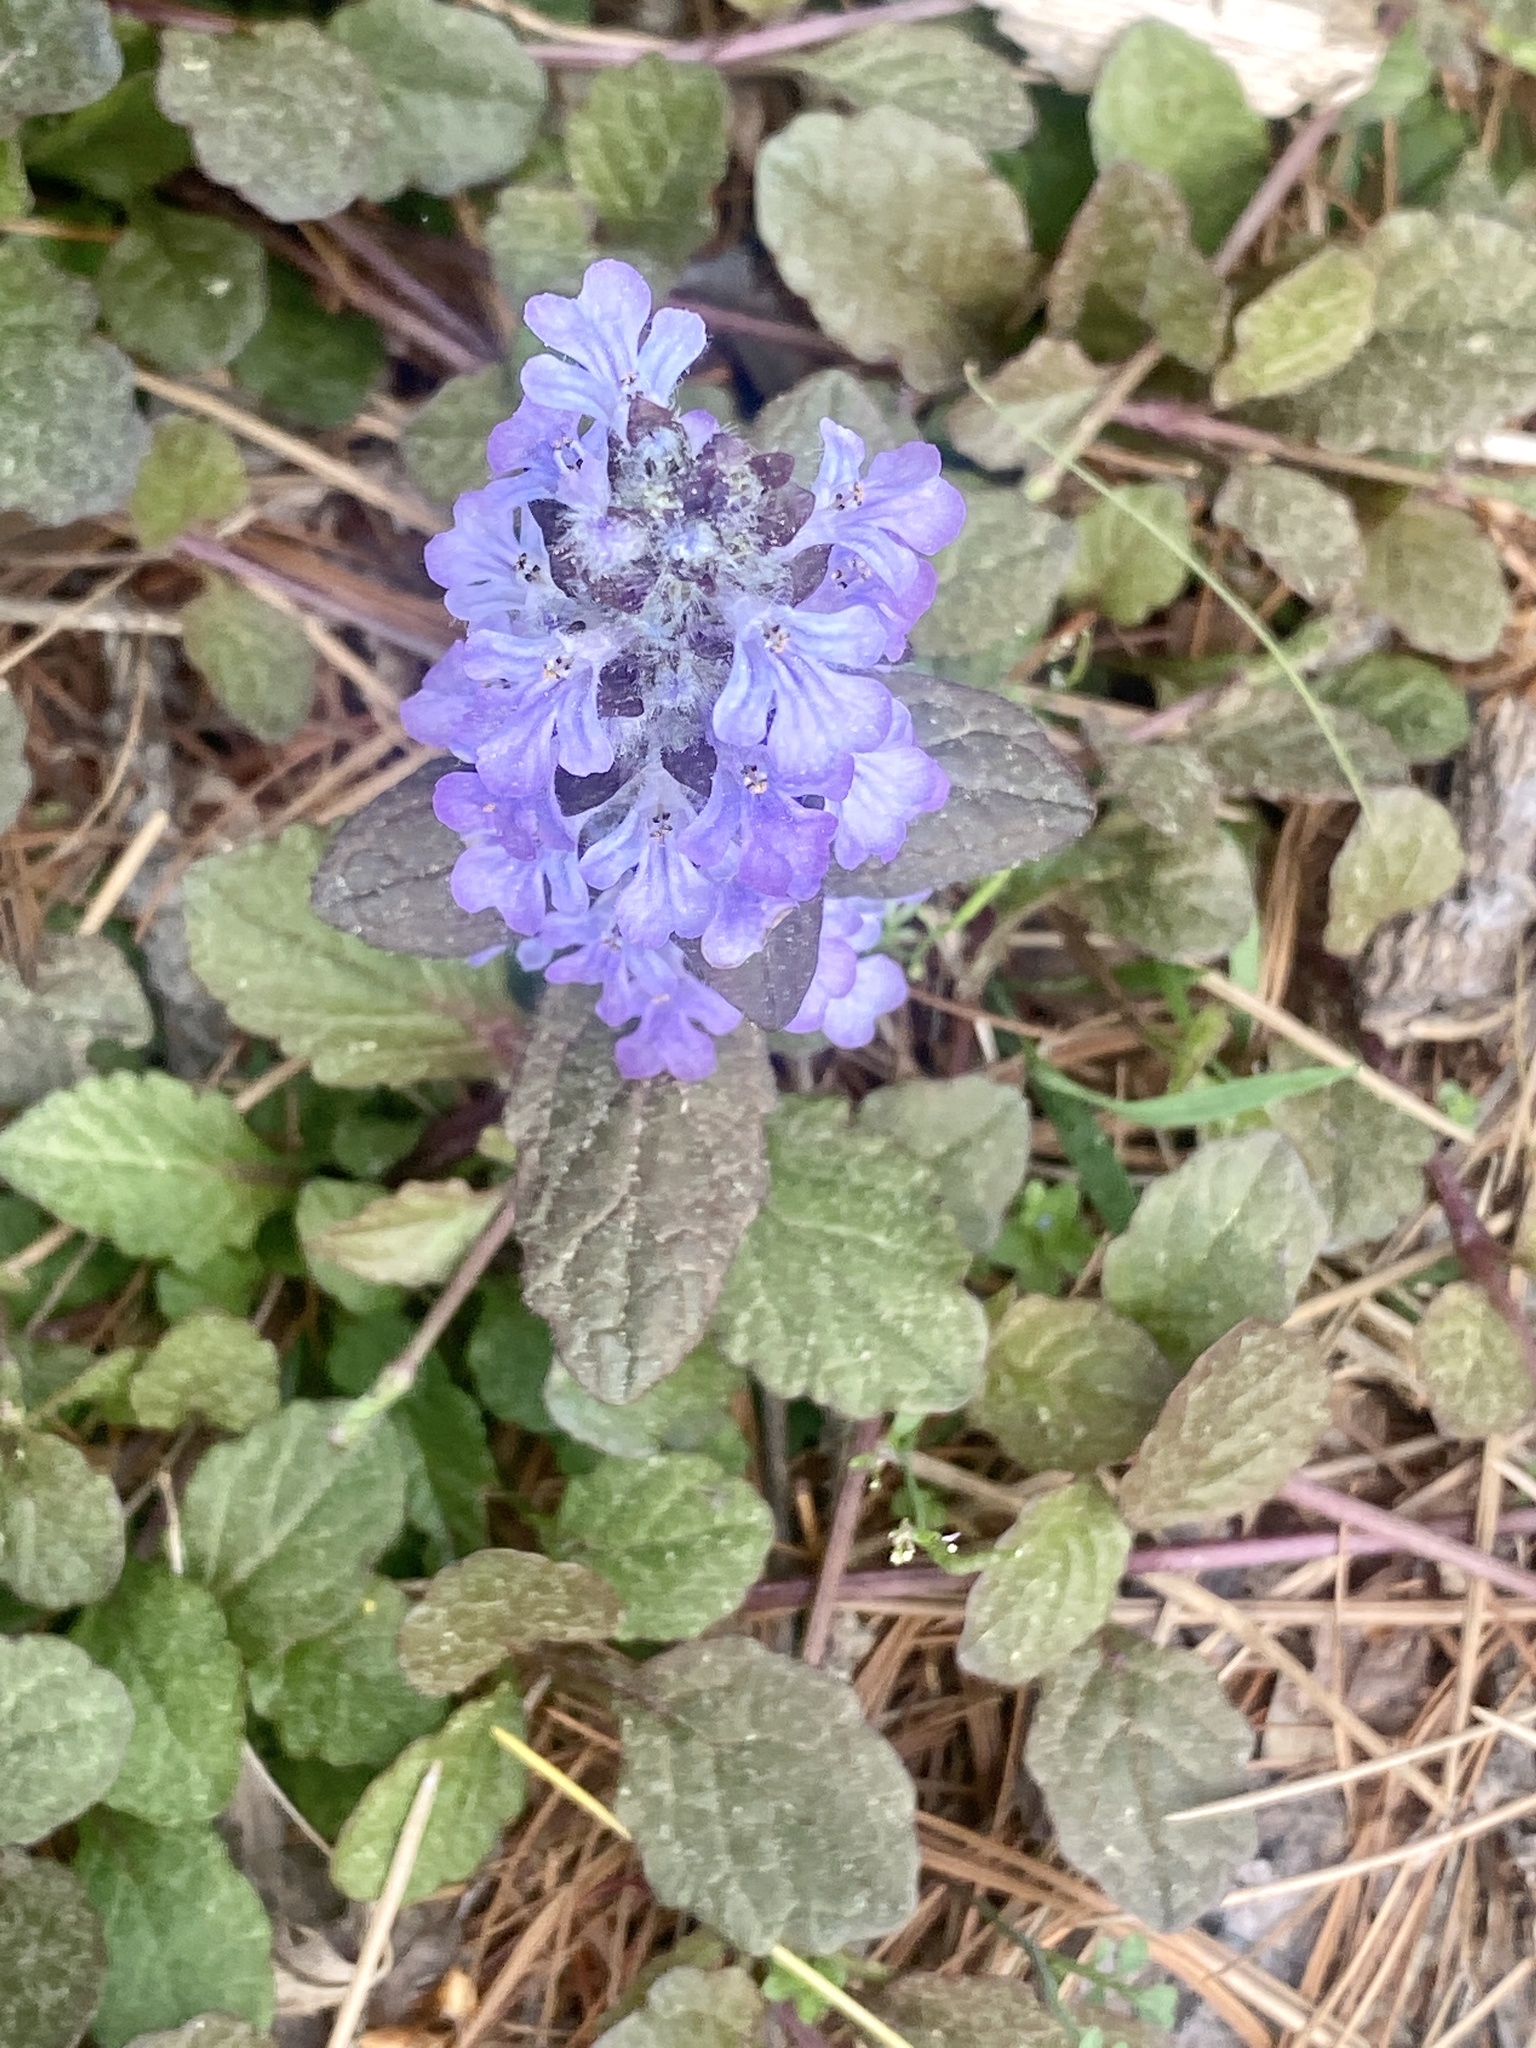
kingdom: Plantae
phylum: Tracheophyta
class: Magnoliopsida
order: Lamiales
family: Lamiaceae
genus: Ajuga
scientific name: Ajuga reptans
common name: Bugle
